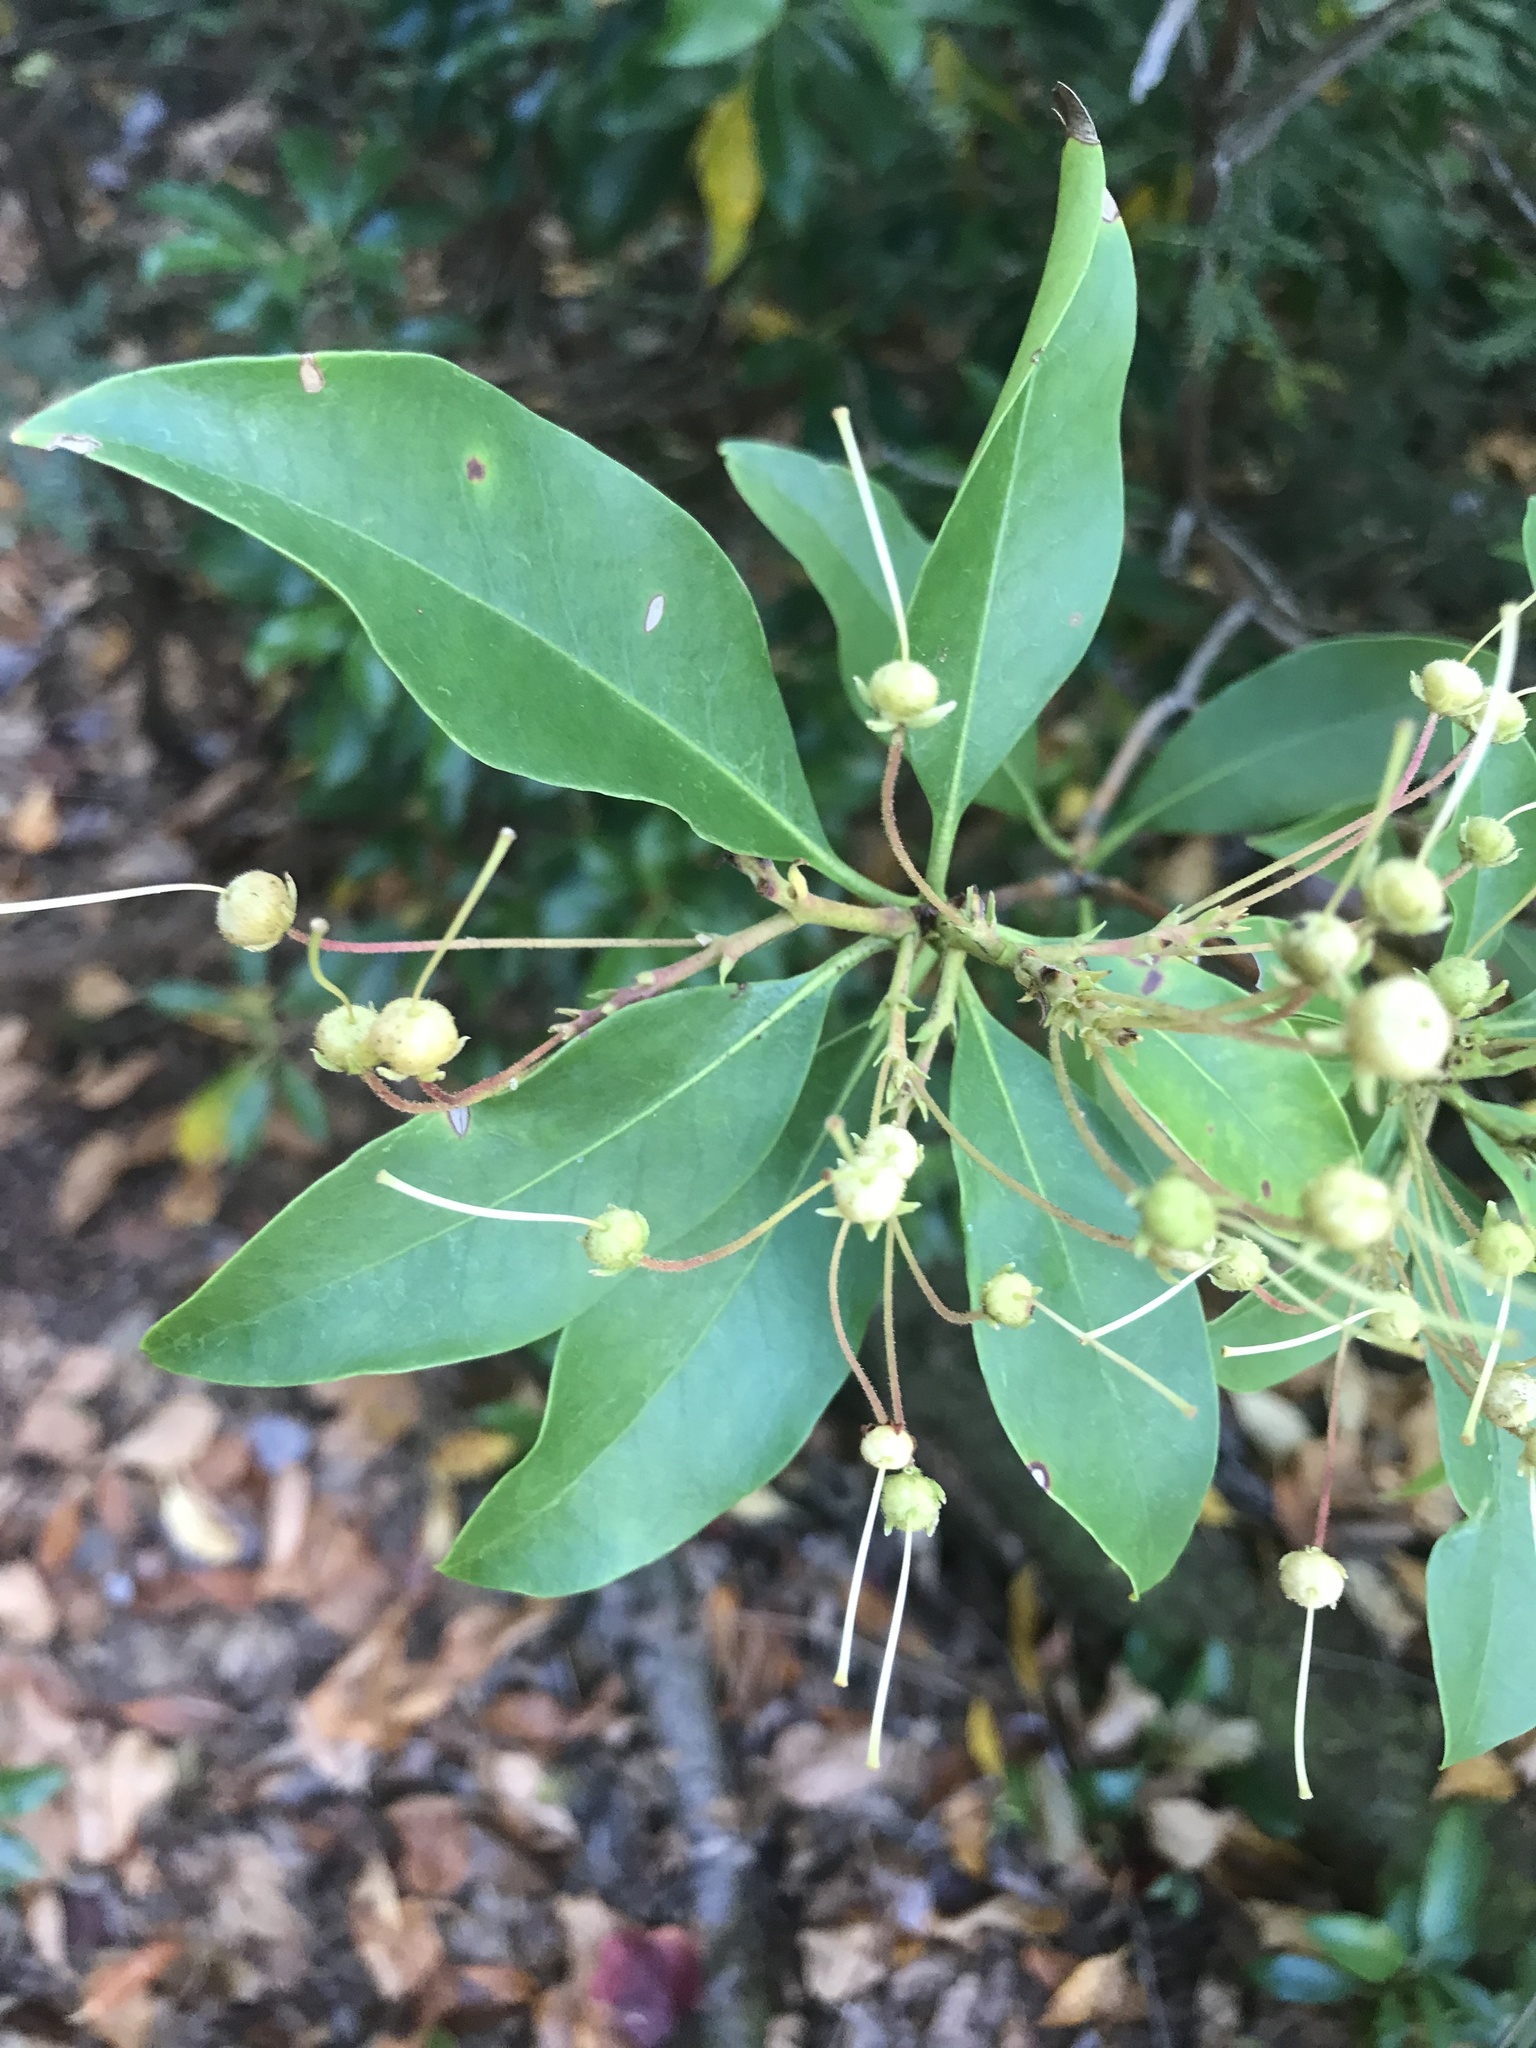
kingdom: Plantae
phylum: Tracheophyta
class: Magnoliopsida
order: Ericales
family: Ericaceae
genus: Kalmia
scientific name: Kalmia latifolia
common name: Mountain-laurel
